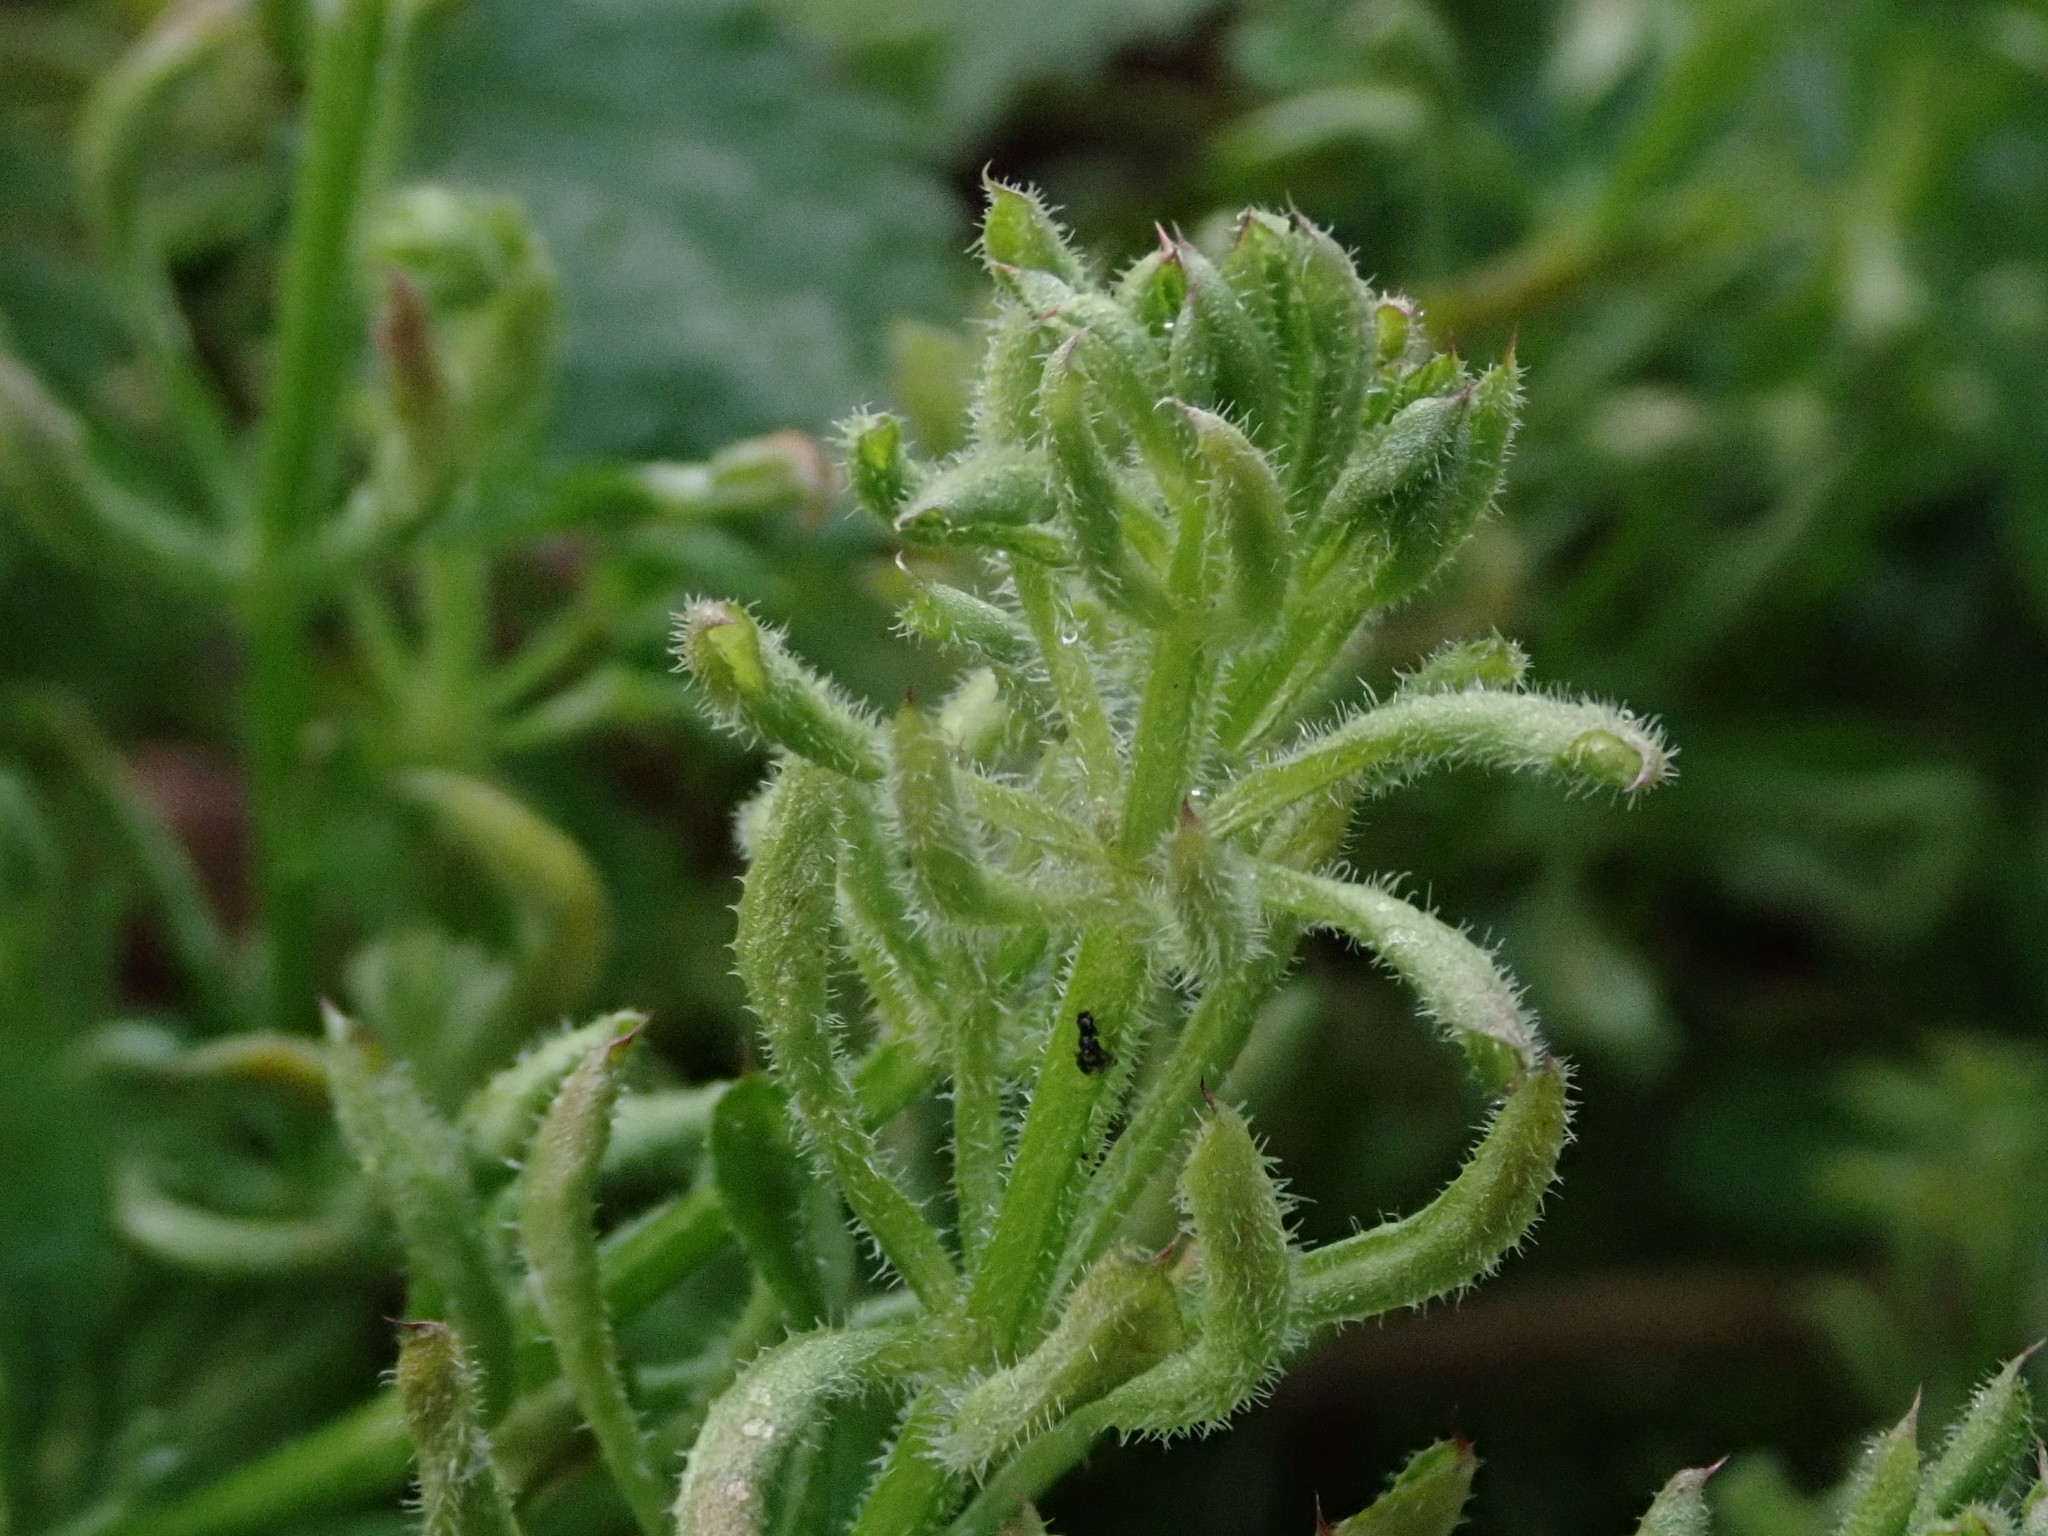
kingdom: Animalia
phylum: Arthropoda
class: Arachnida
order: Trombidiformes
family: Eriophyidae
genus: Cecidophyes
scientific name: Cecidophyes rouhollahi
